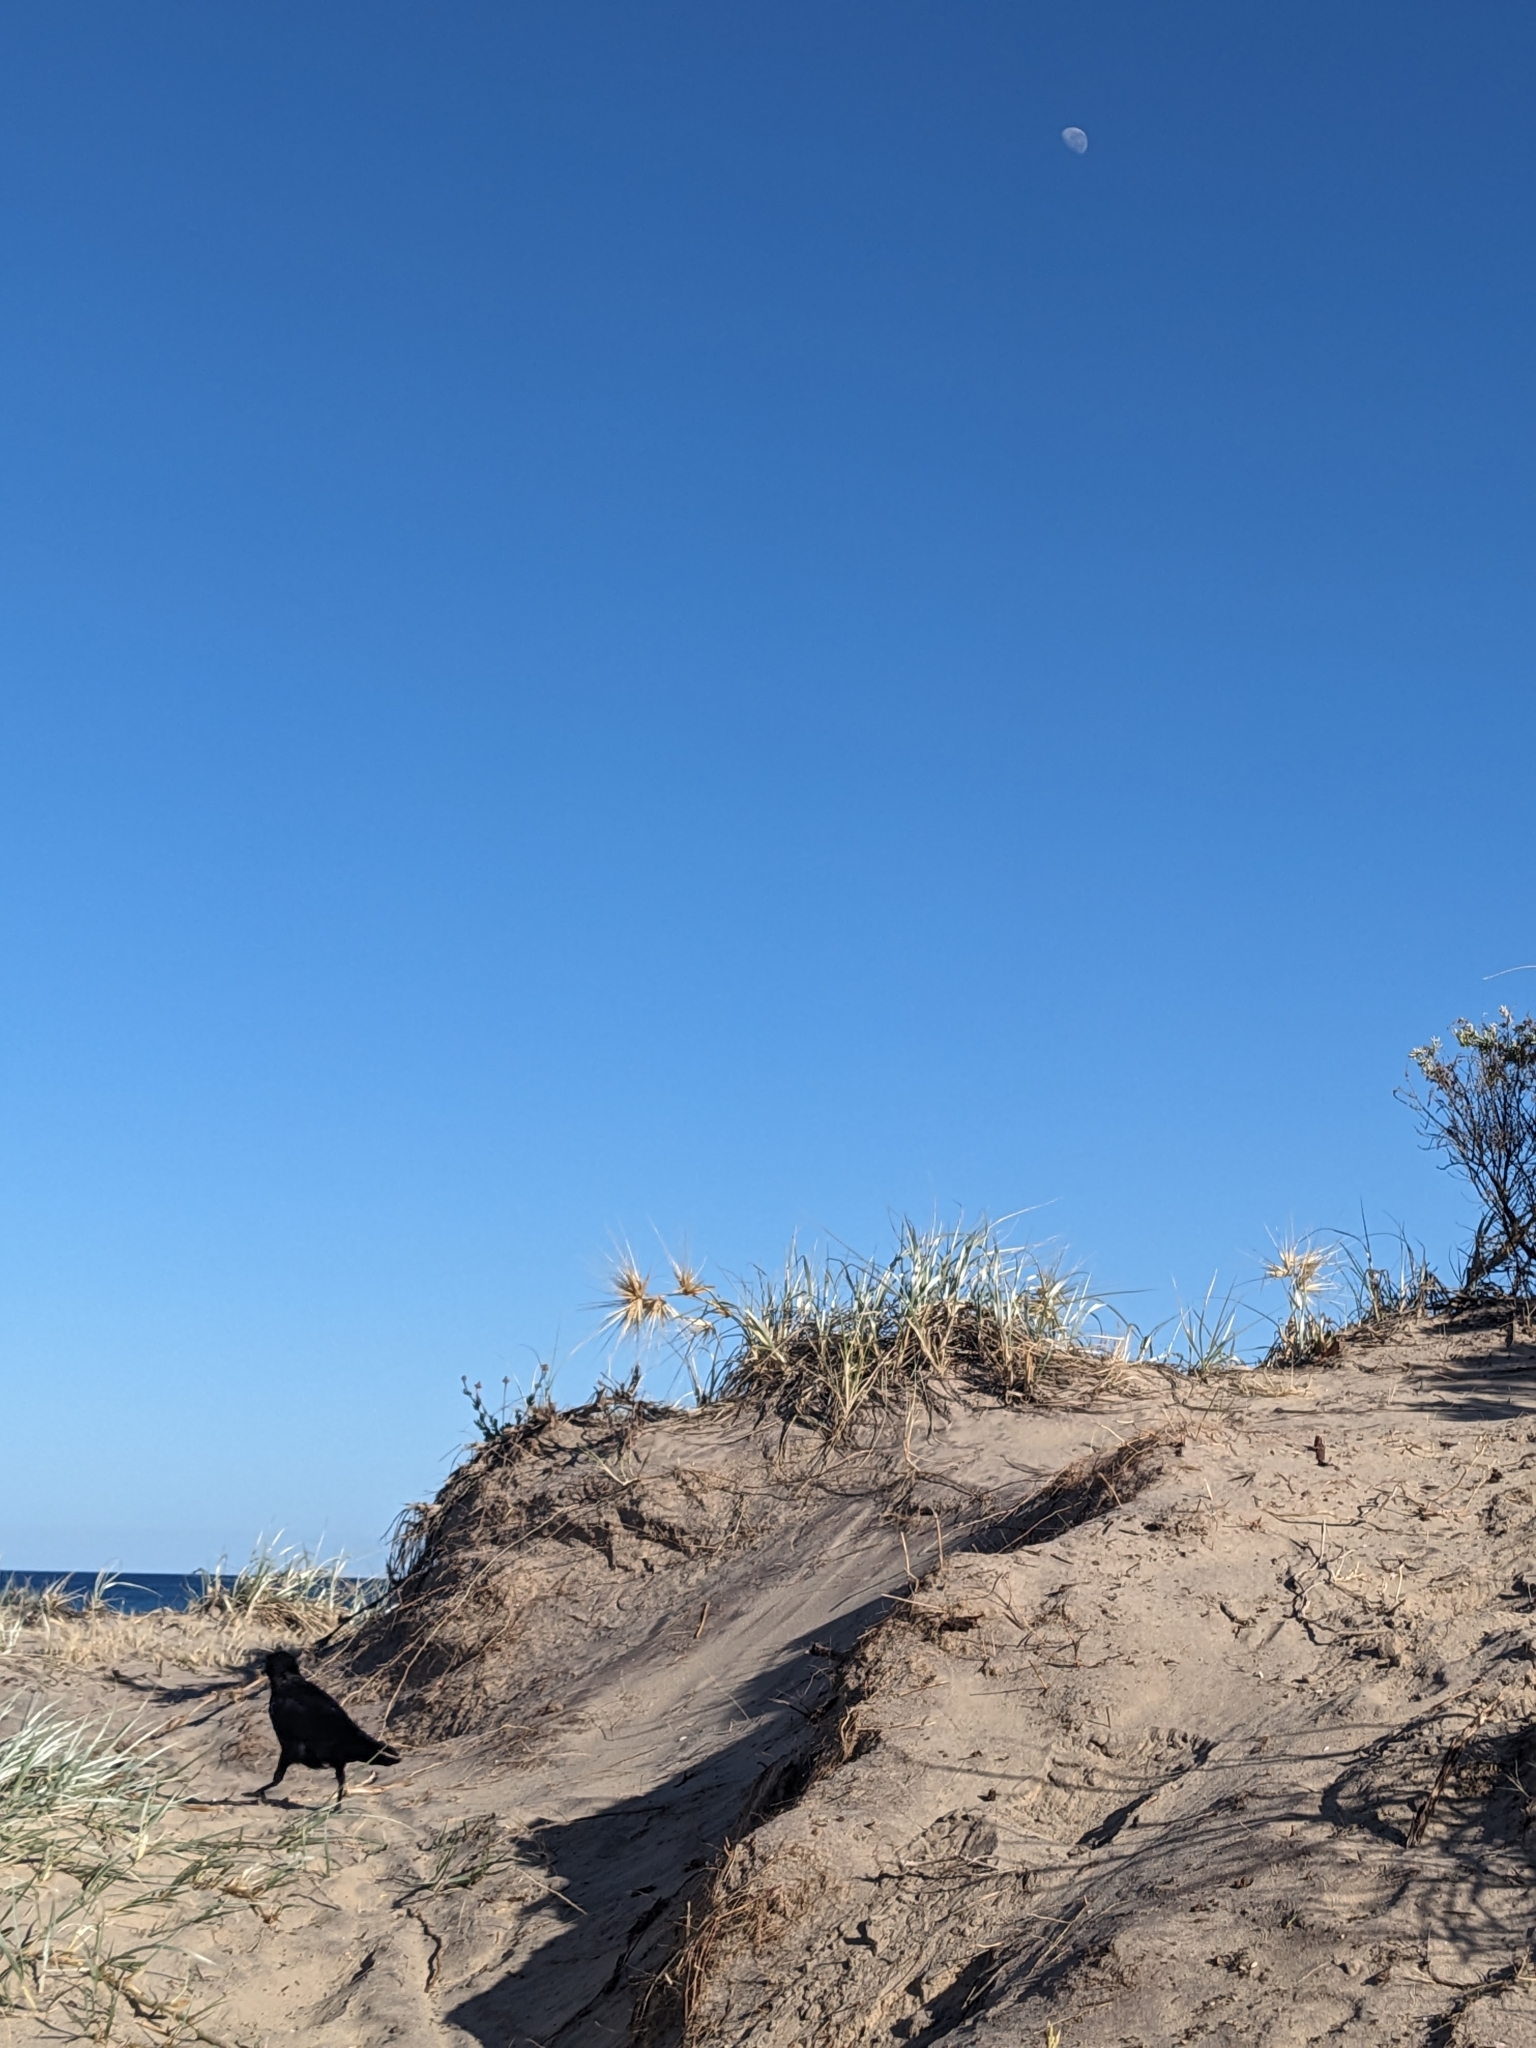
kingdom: Animalia
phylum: Chordata
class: Aves
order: Passeriformes
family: Corvidae
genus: Corvus
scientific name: Corvus mellori
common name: Little raven
